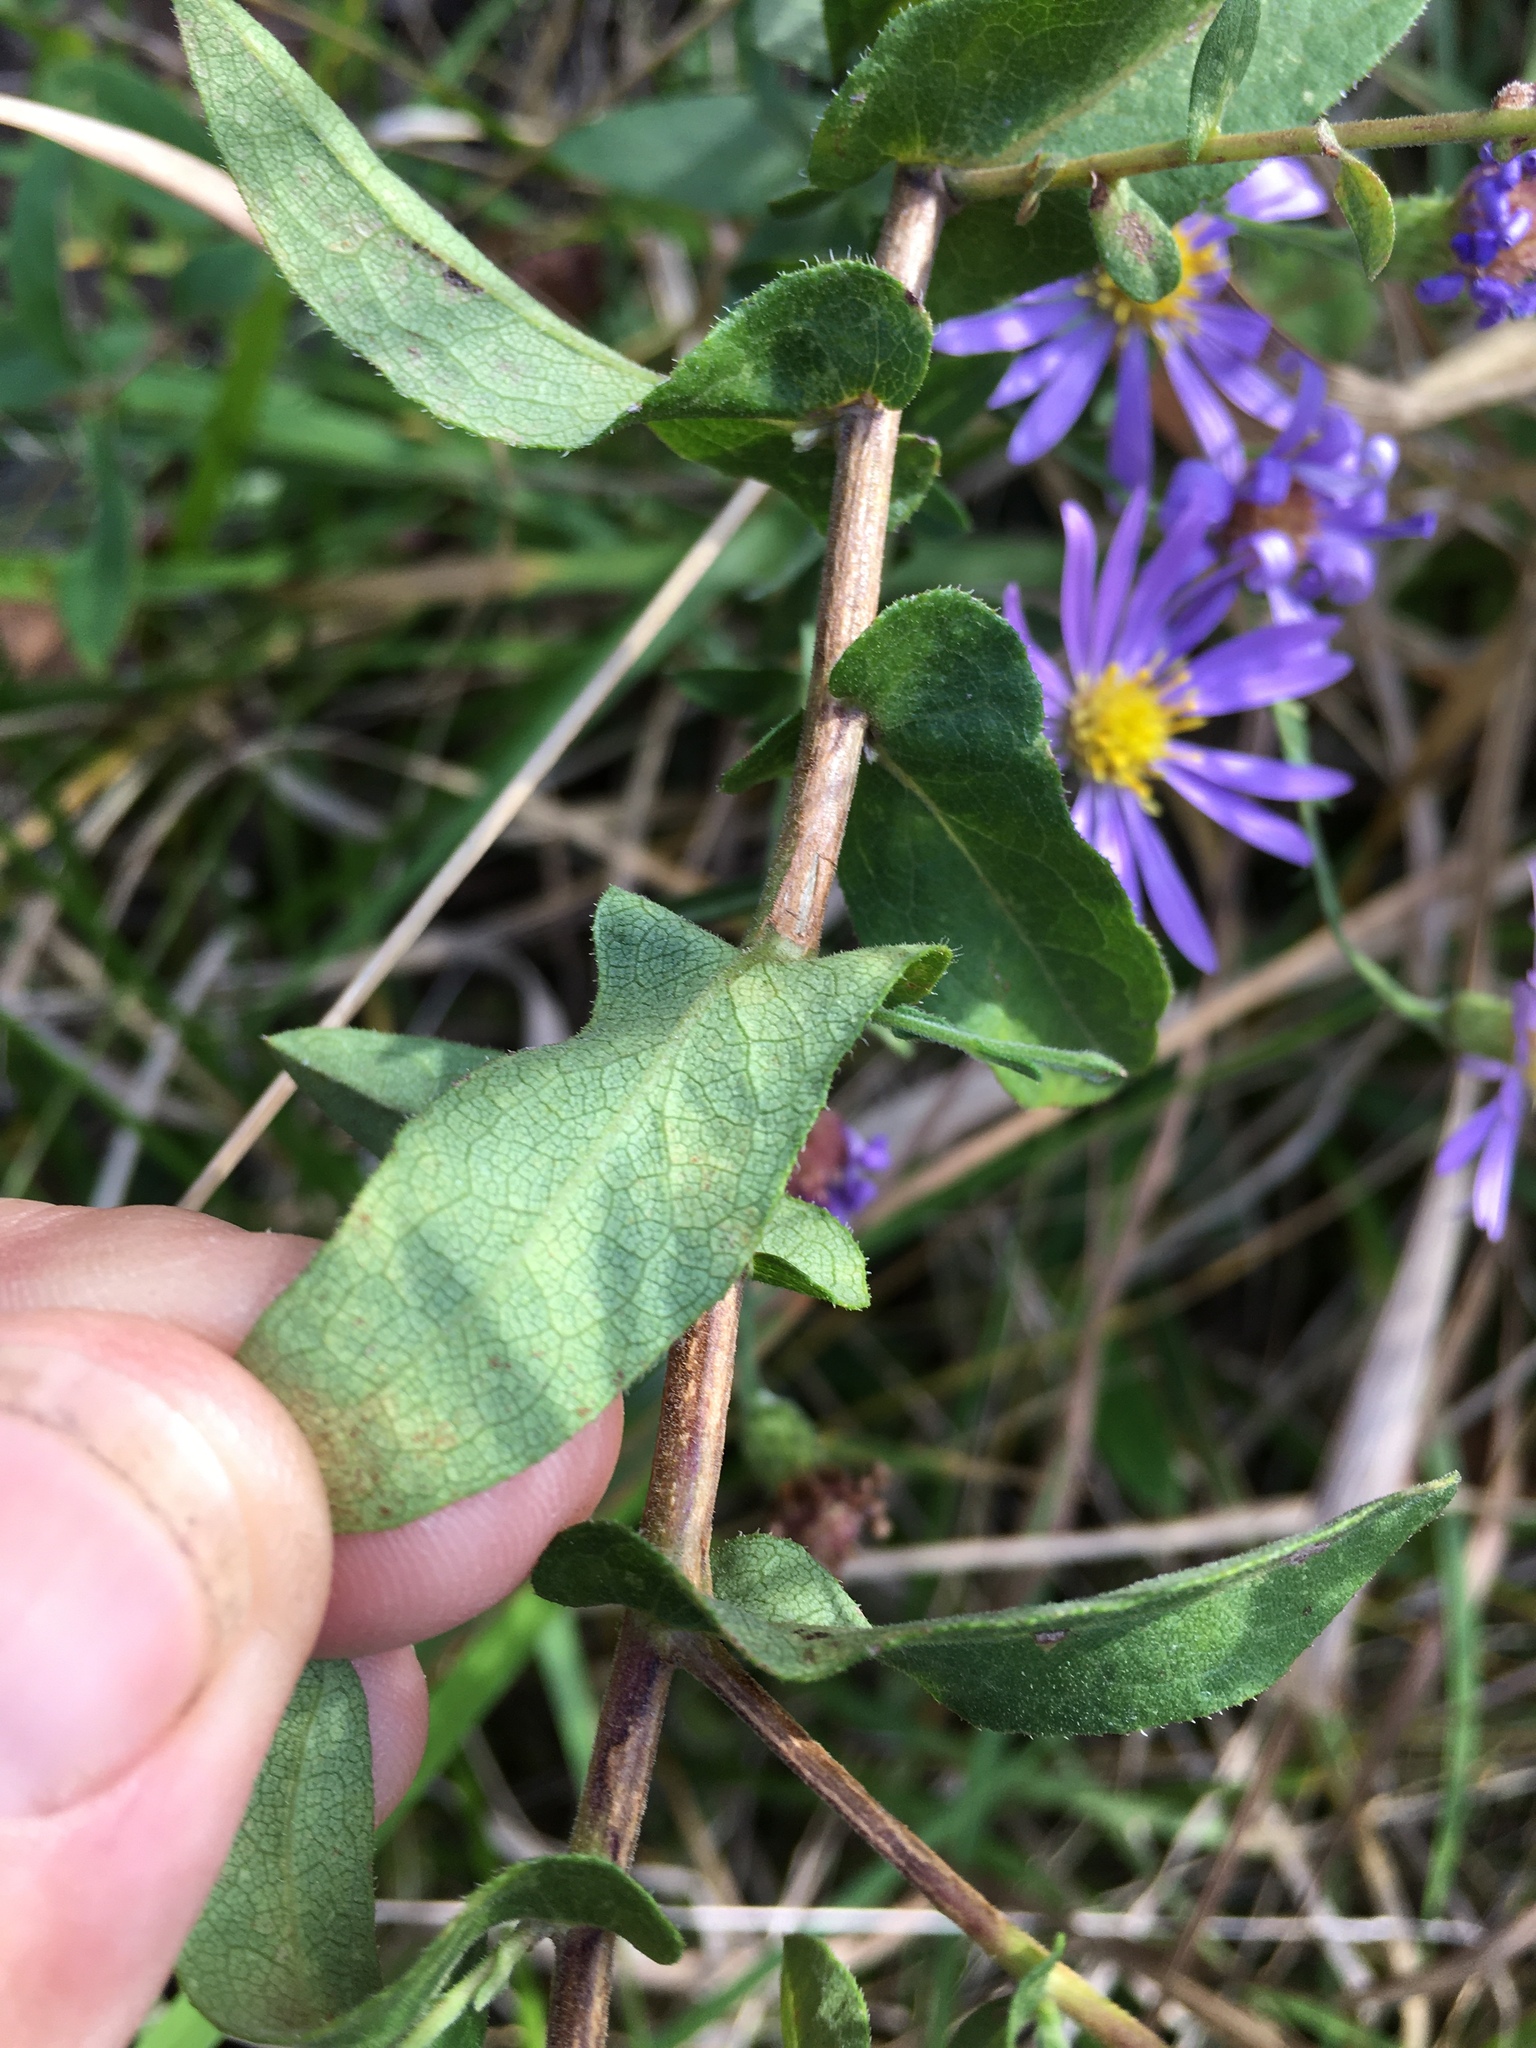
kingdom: Plantae
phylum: Tracheophyta
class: Magnoliopsida
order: Asterales
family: Asteraceae
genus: Symphyotrichum
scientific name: Symphyotrichum patens
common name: Late purple aster
